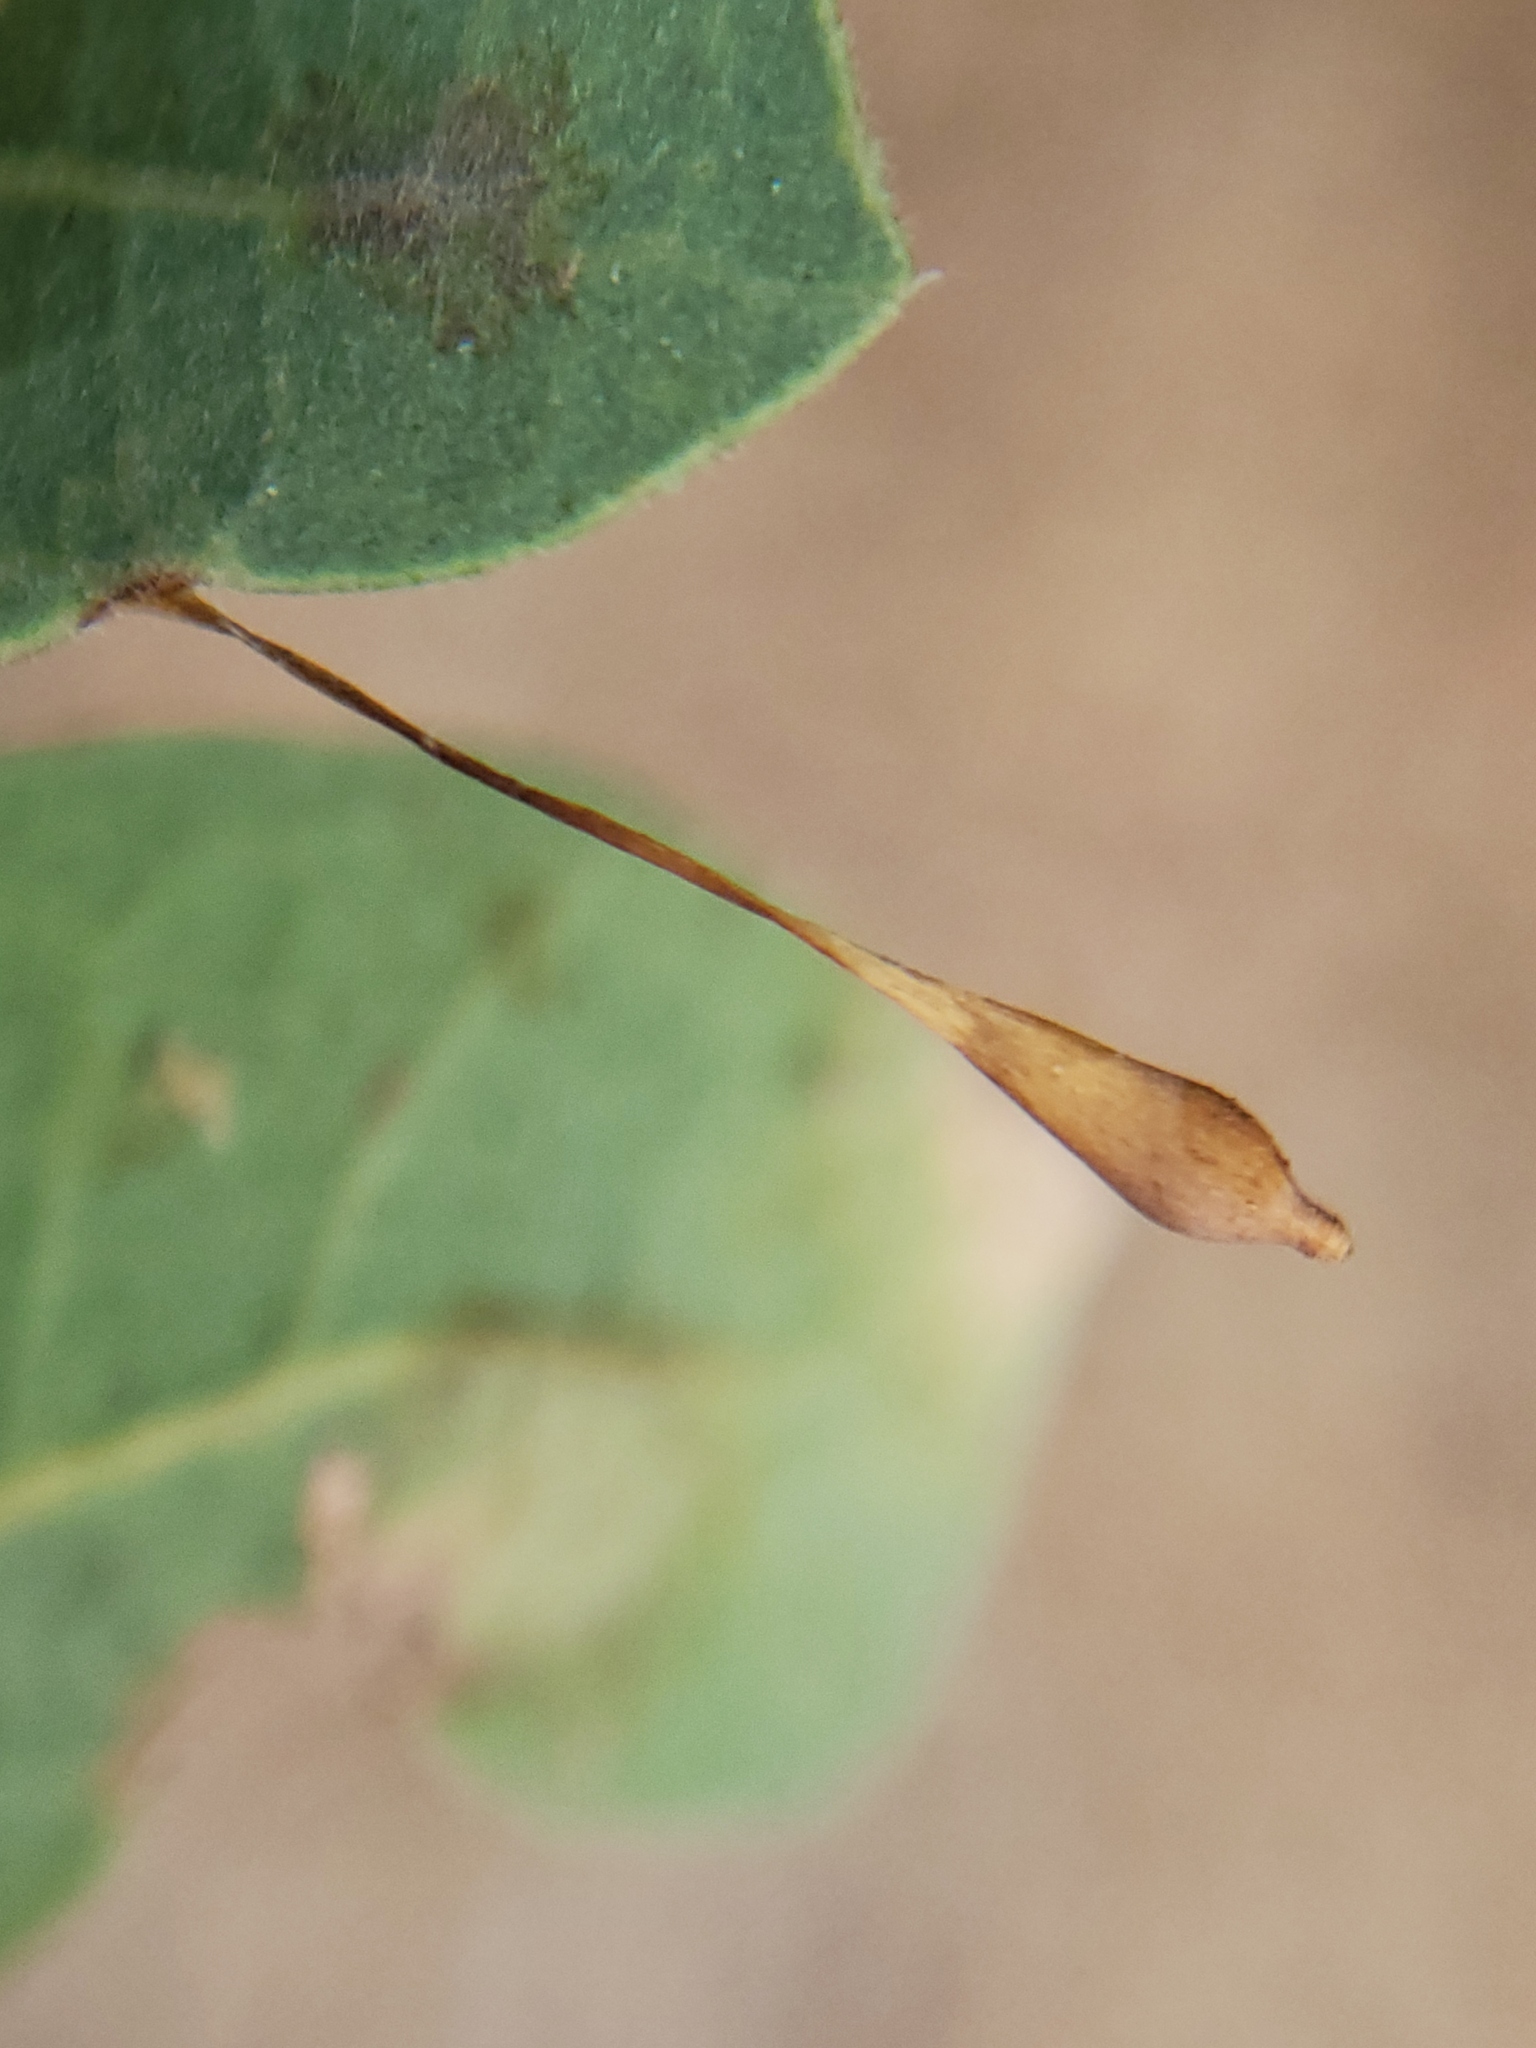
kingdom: Animalia
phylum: Arthropoda
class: Insecta
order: Hymenoptera
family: Cynipidae
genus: Andricus
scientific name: Andricus
